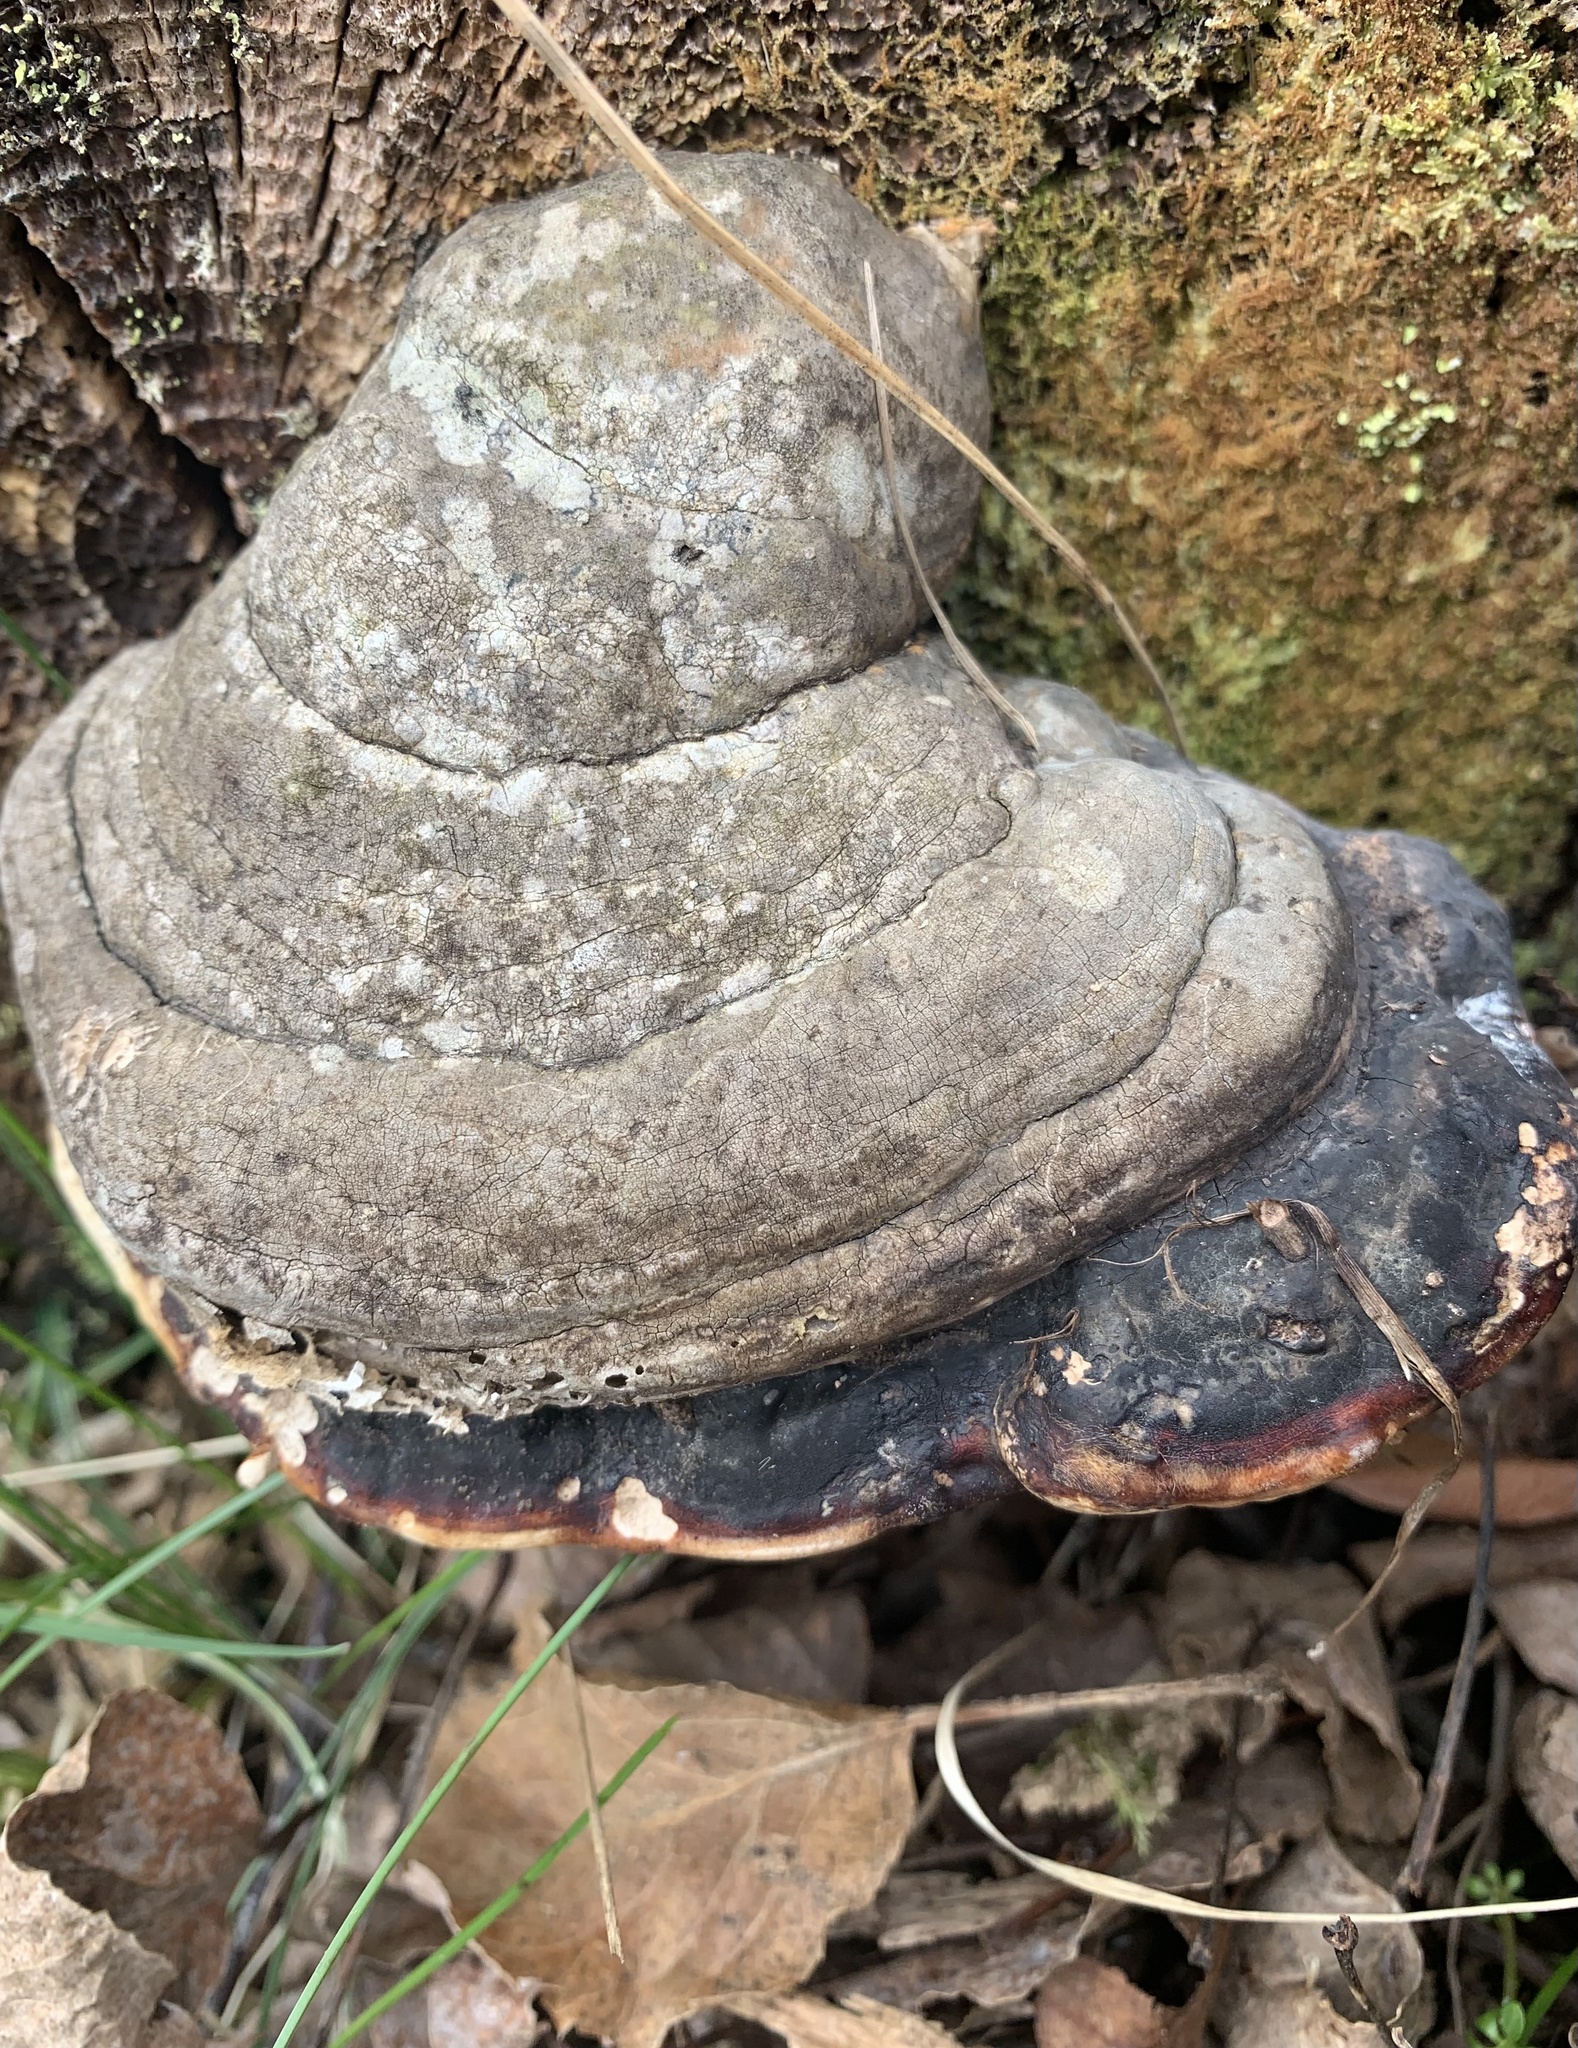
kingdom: Fungi
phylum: Basidiomycota
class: Agaricomycetes
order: Polyporales
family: Fomitopsidaceae
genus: Fomitopsis
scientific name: Fomitopsis mounceae
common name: Northern red belt
